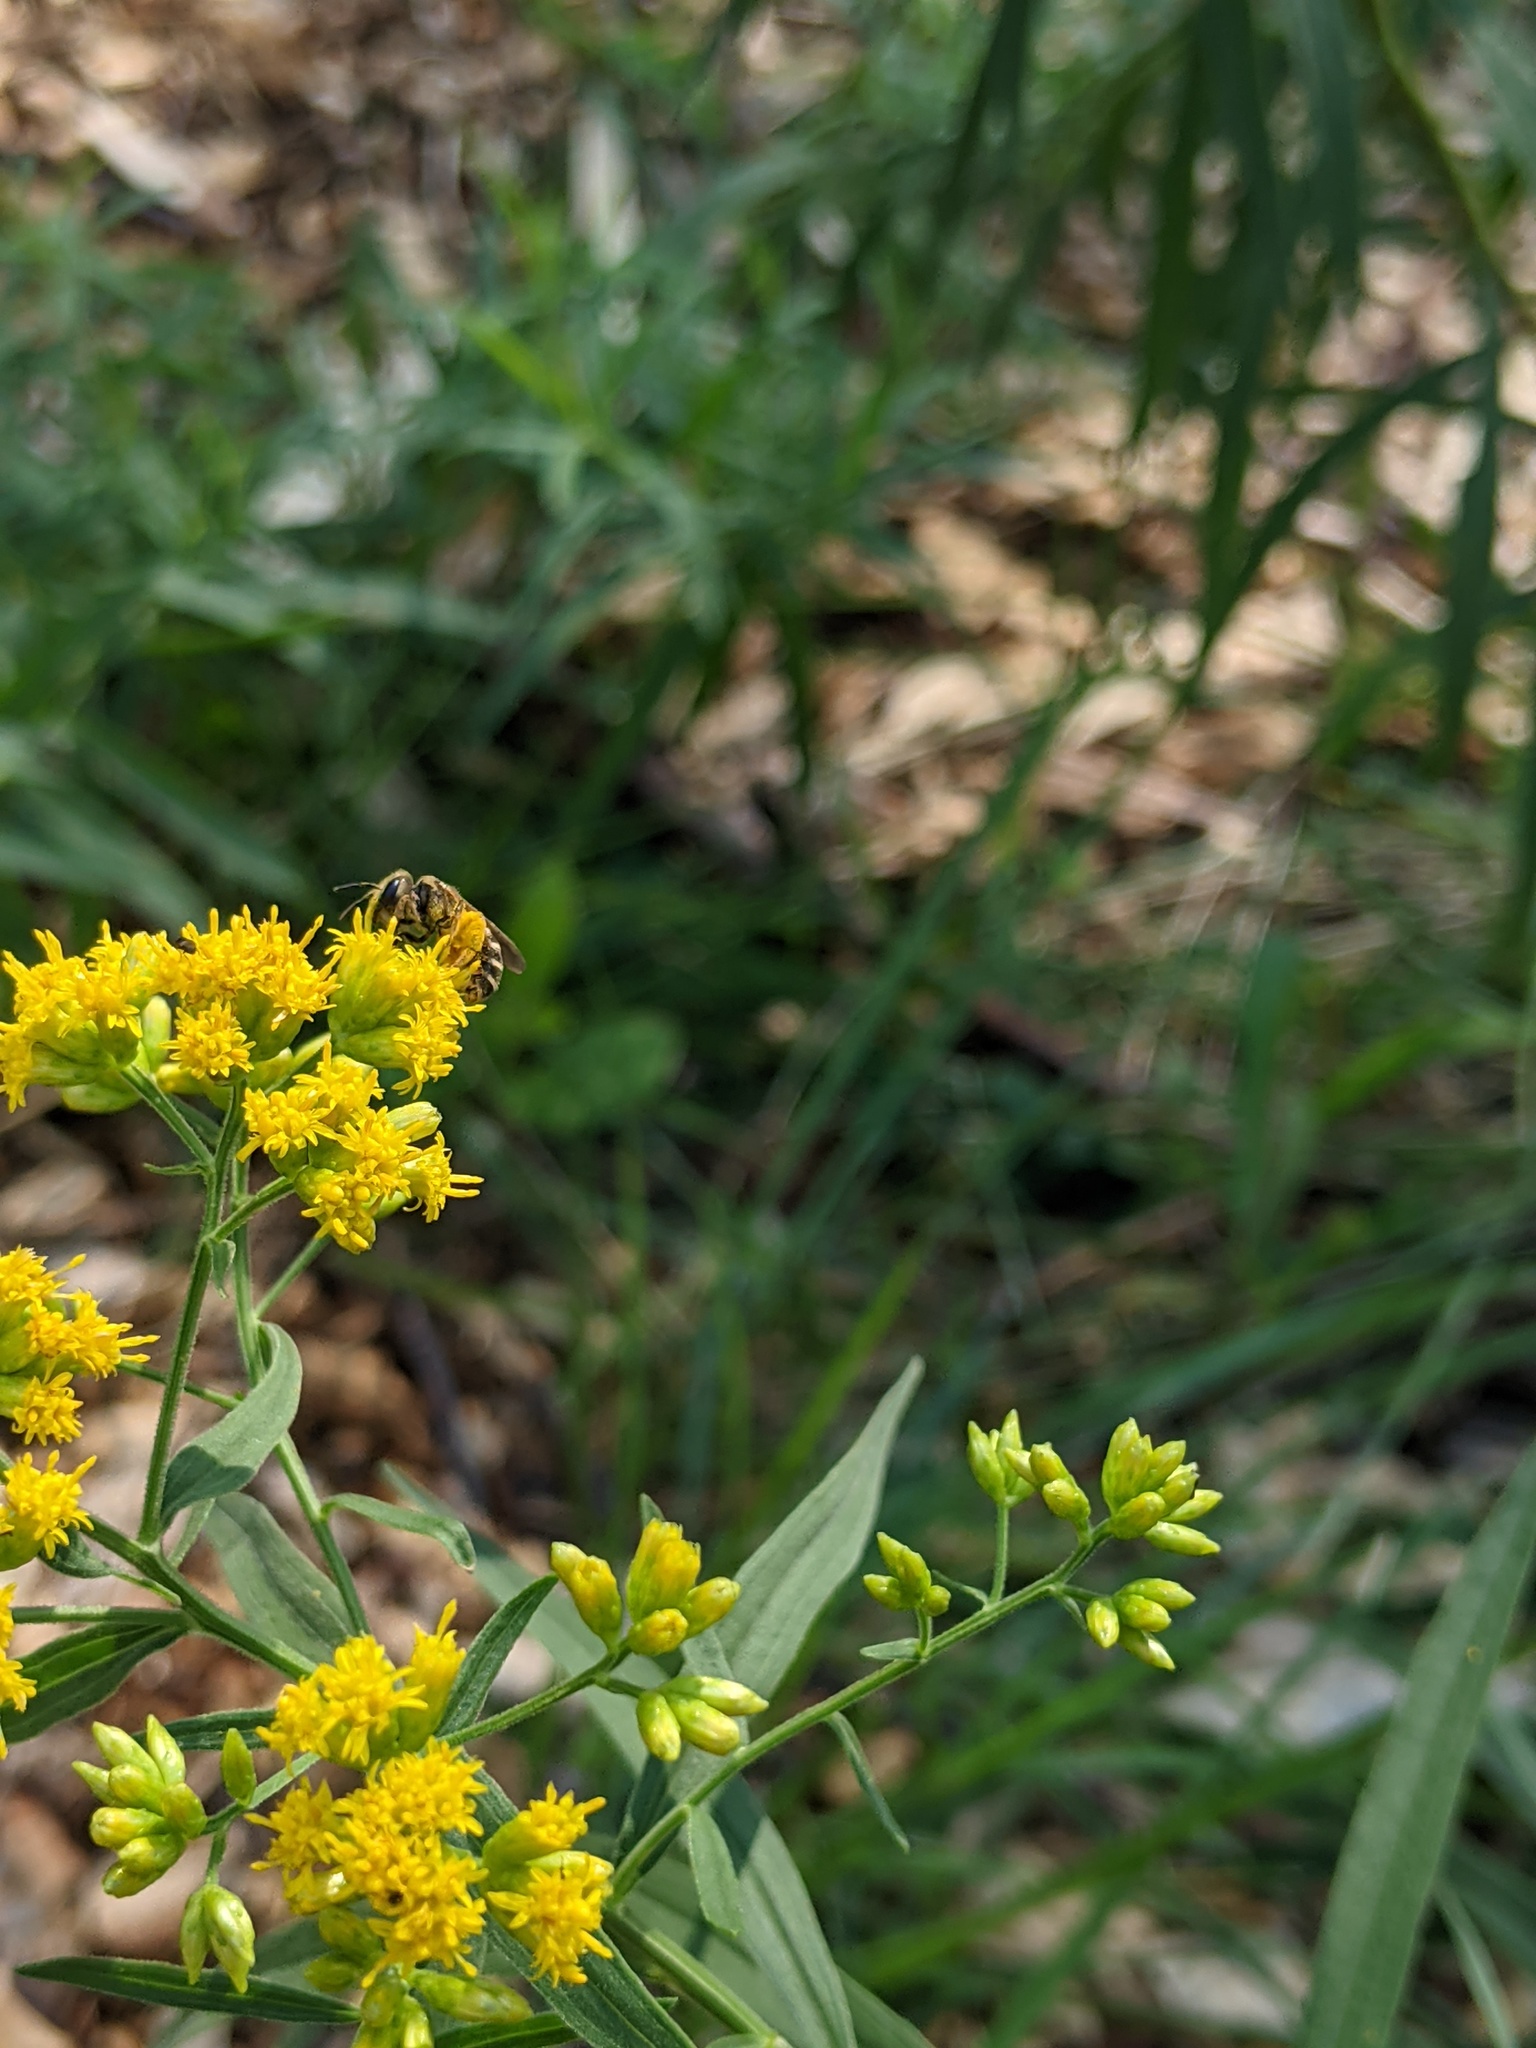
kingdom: Animalia
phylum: Arthropoda
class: Insecta
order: Hymenoptera
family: Halictidae
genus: Halictus
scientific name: Halictus ligatus
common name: Ligated furrow bee
